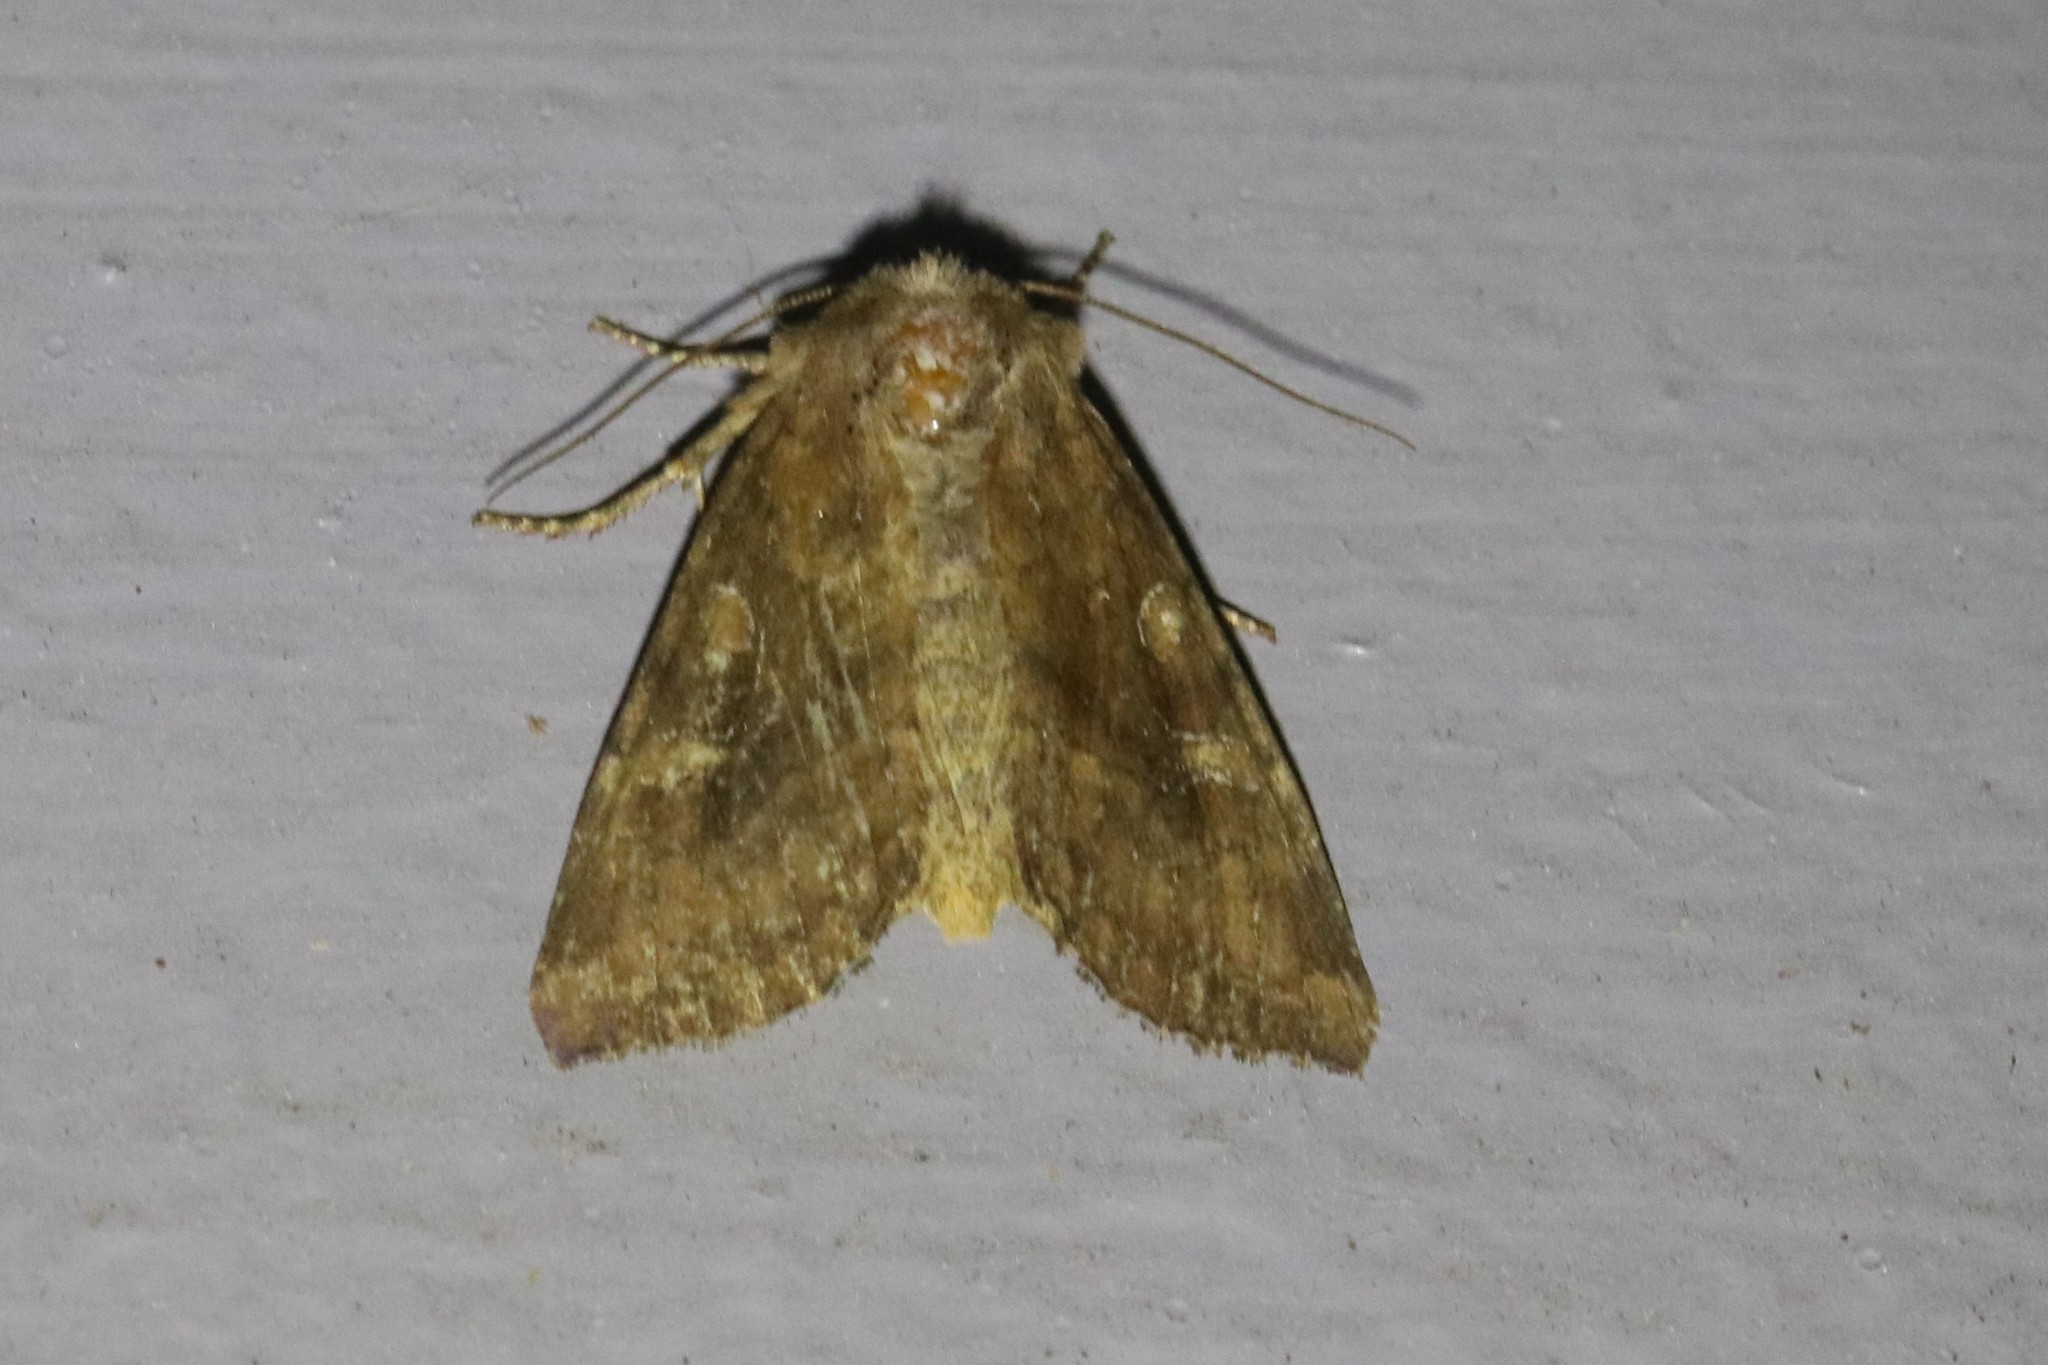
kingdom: Animalia
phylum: Arthropoda
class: Insecta
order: Lepidoptera
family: Noctuidae
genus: Loscopia
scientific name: Loscopia velata
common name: Veiled ear moth
